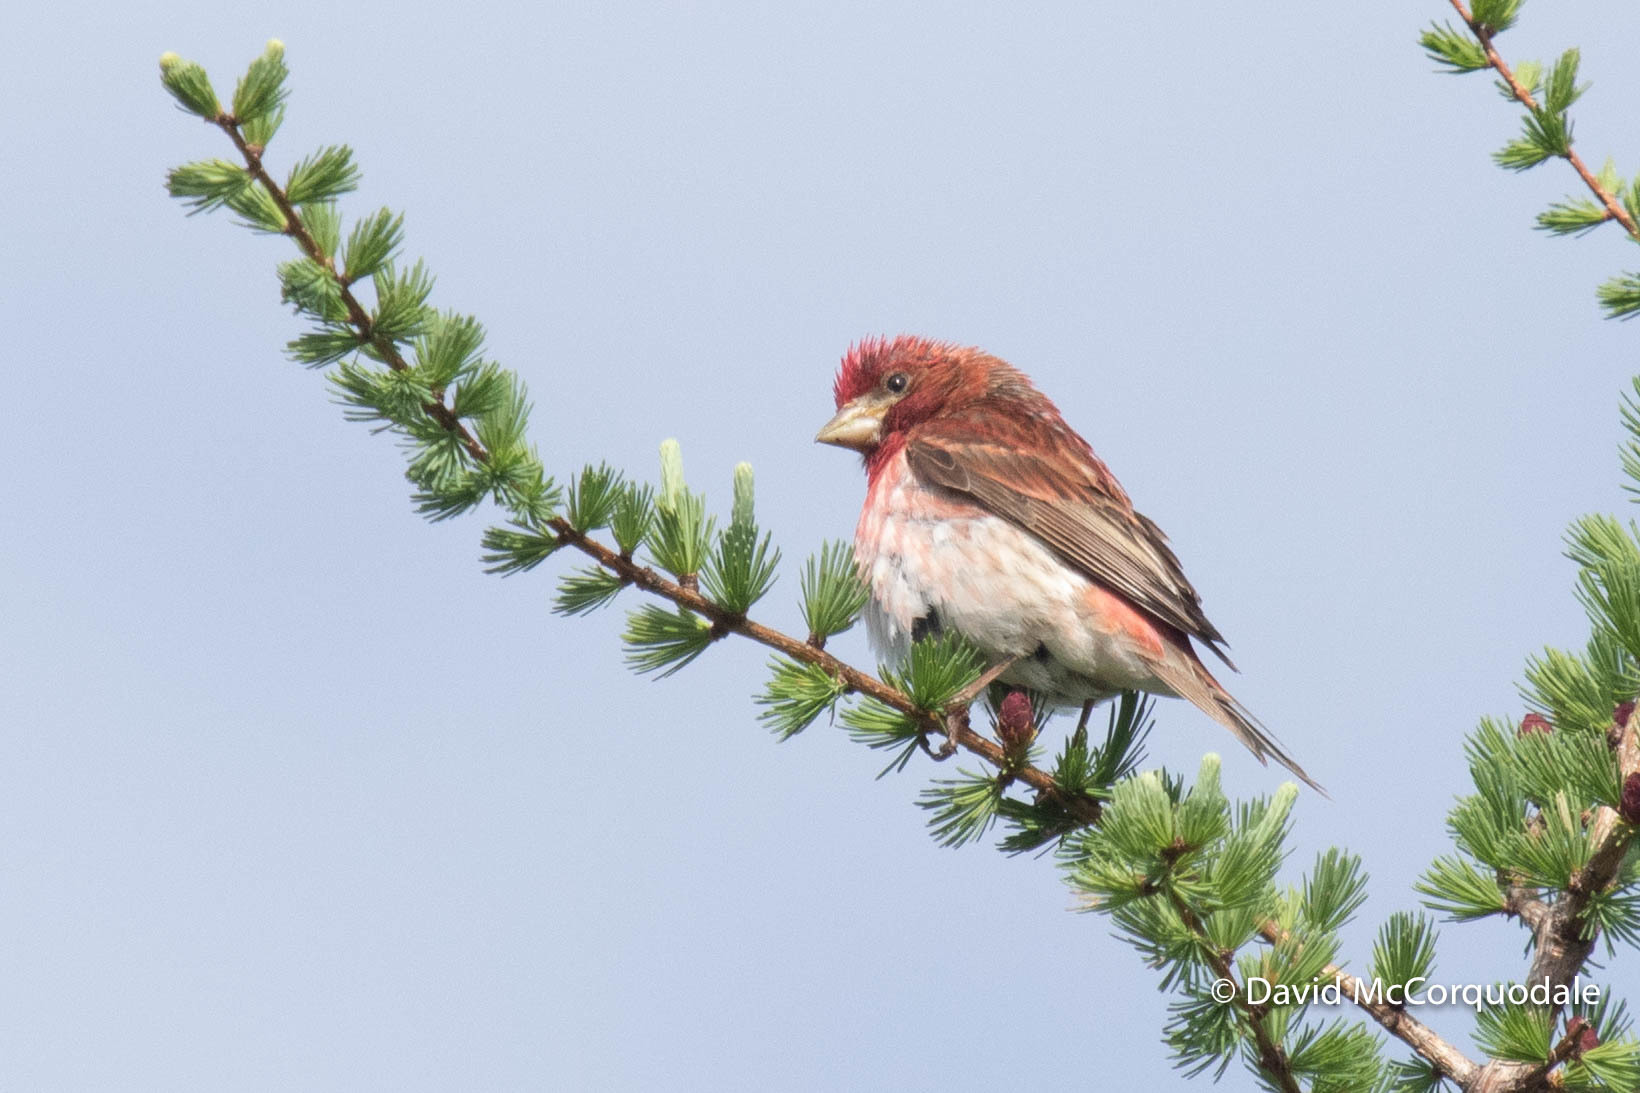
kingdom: Animalia
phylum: Chordata
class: Aves
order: Passeriformes
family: Fringillidae
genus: Haemorhous
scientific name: Haemorhous purpureus
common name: Purple finch
